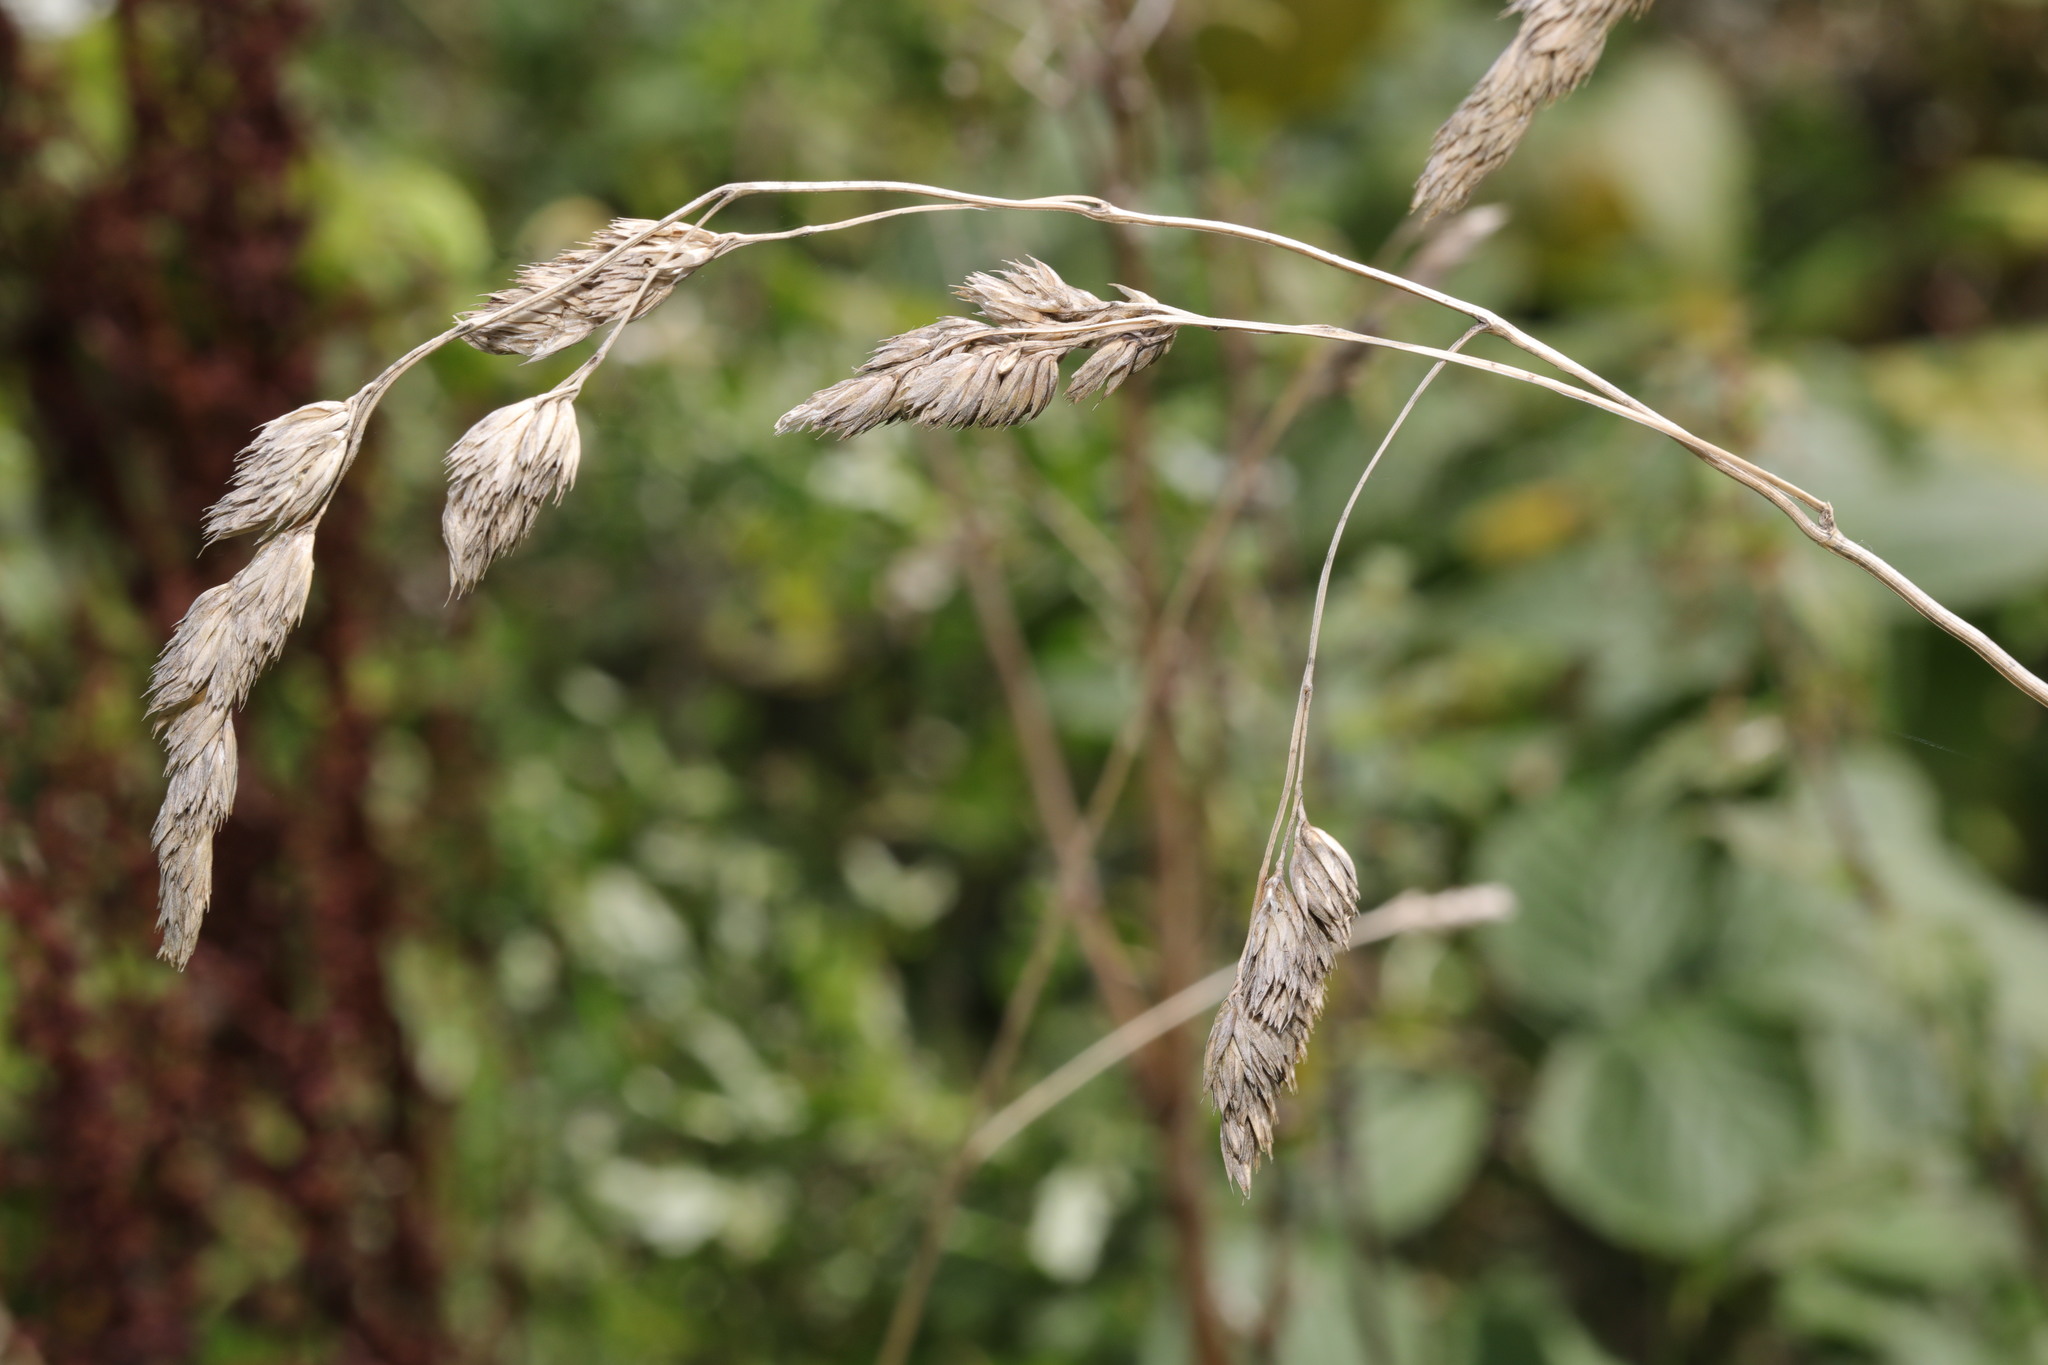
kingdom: Plantae
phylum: Tracheophyta
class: Liliopsida
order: Poales
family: Poaceae
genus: Dactylis
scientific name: Dactylis glomerata
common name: Orchardgrass
